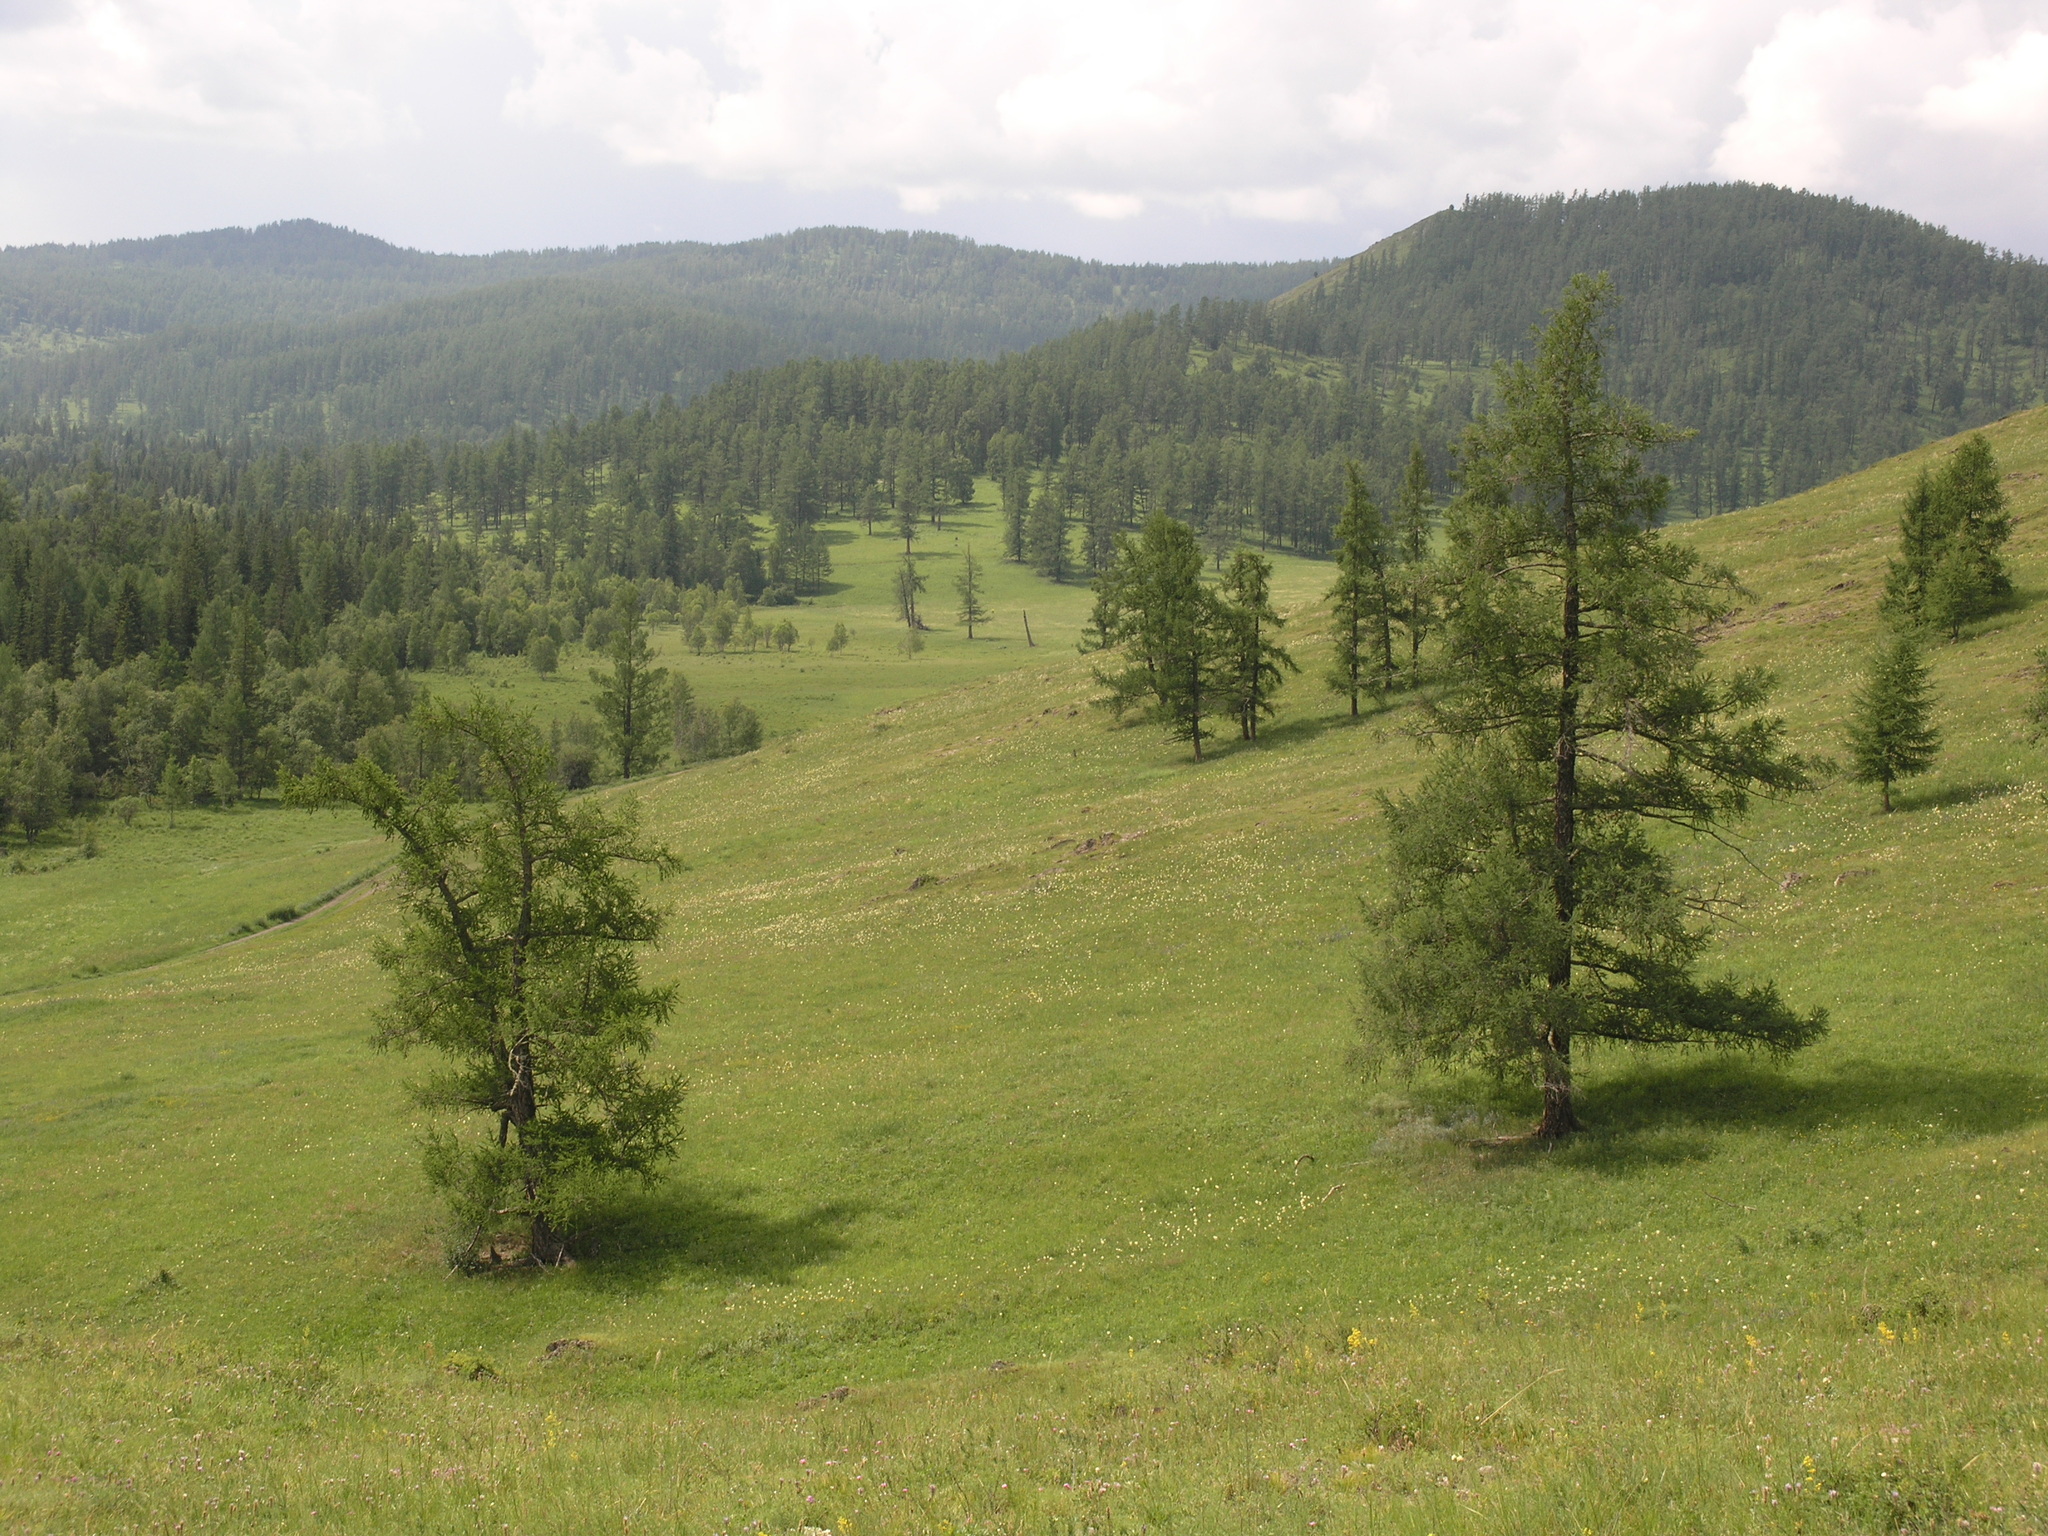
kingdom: Plantae
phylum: Tracheophyta
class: Pinopsida
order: Pinales
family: Pinaceae
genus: Larix
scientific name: Larix sibirica
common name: Siberian larch
